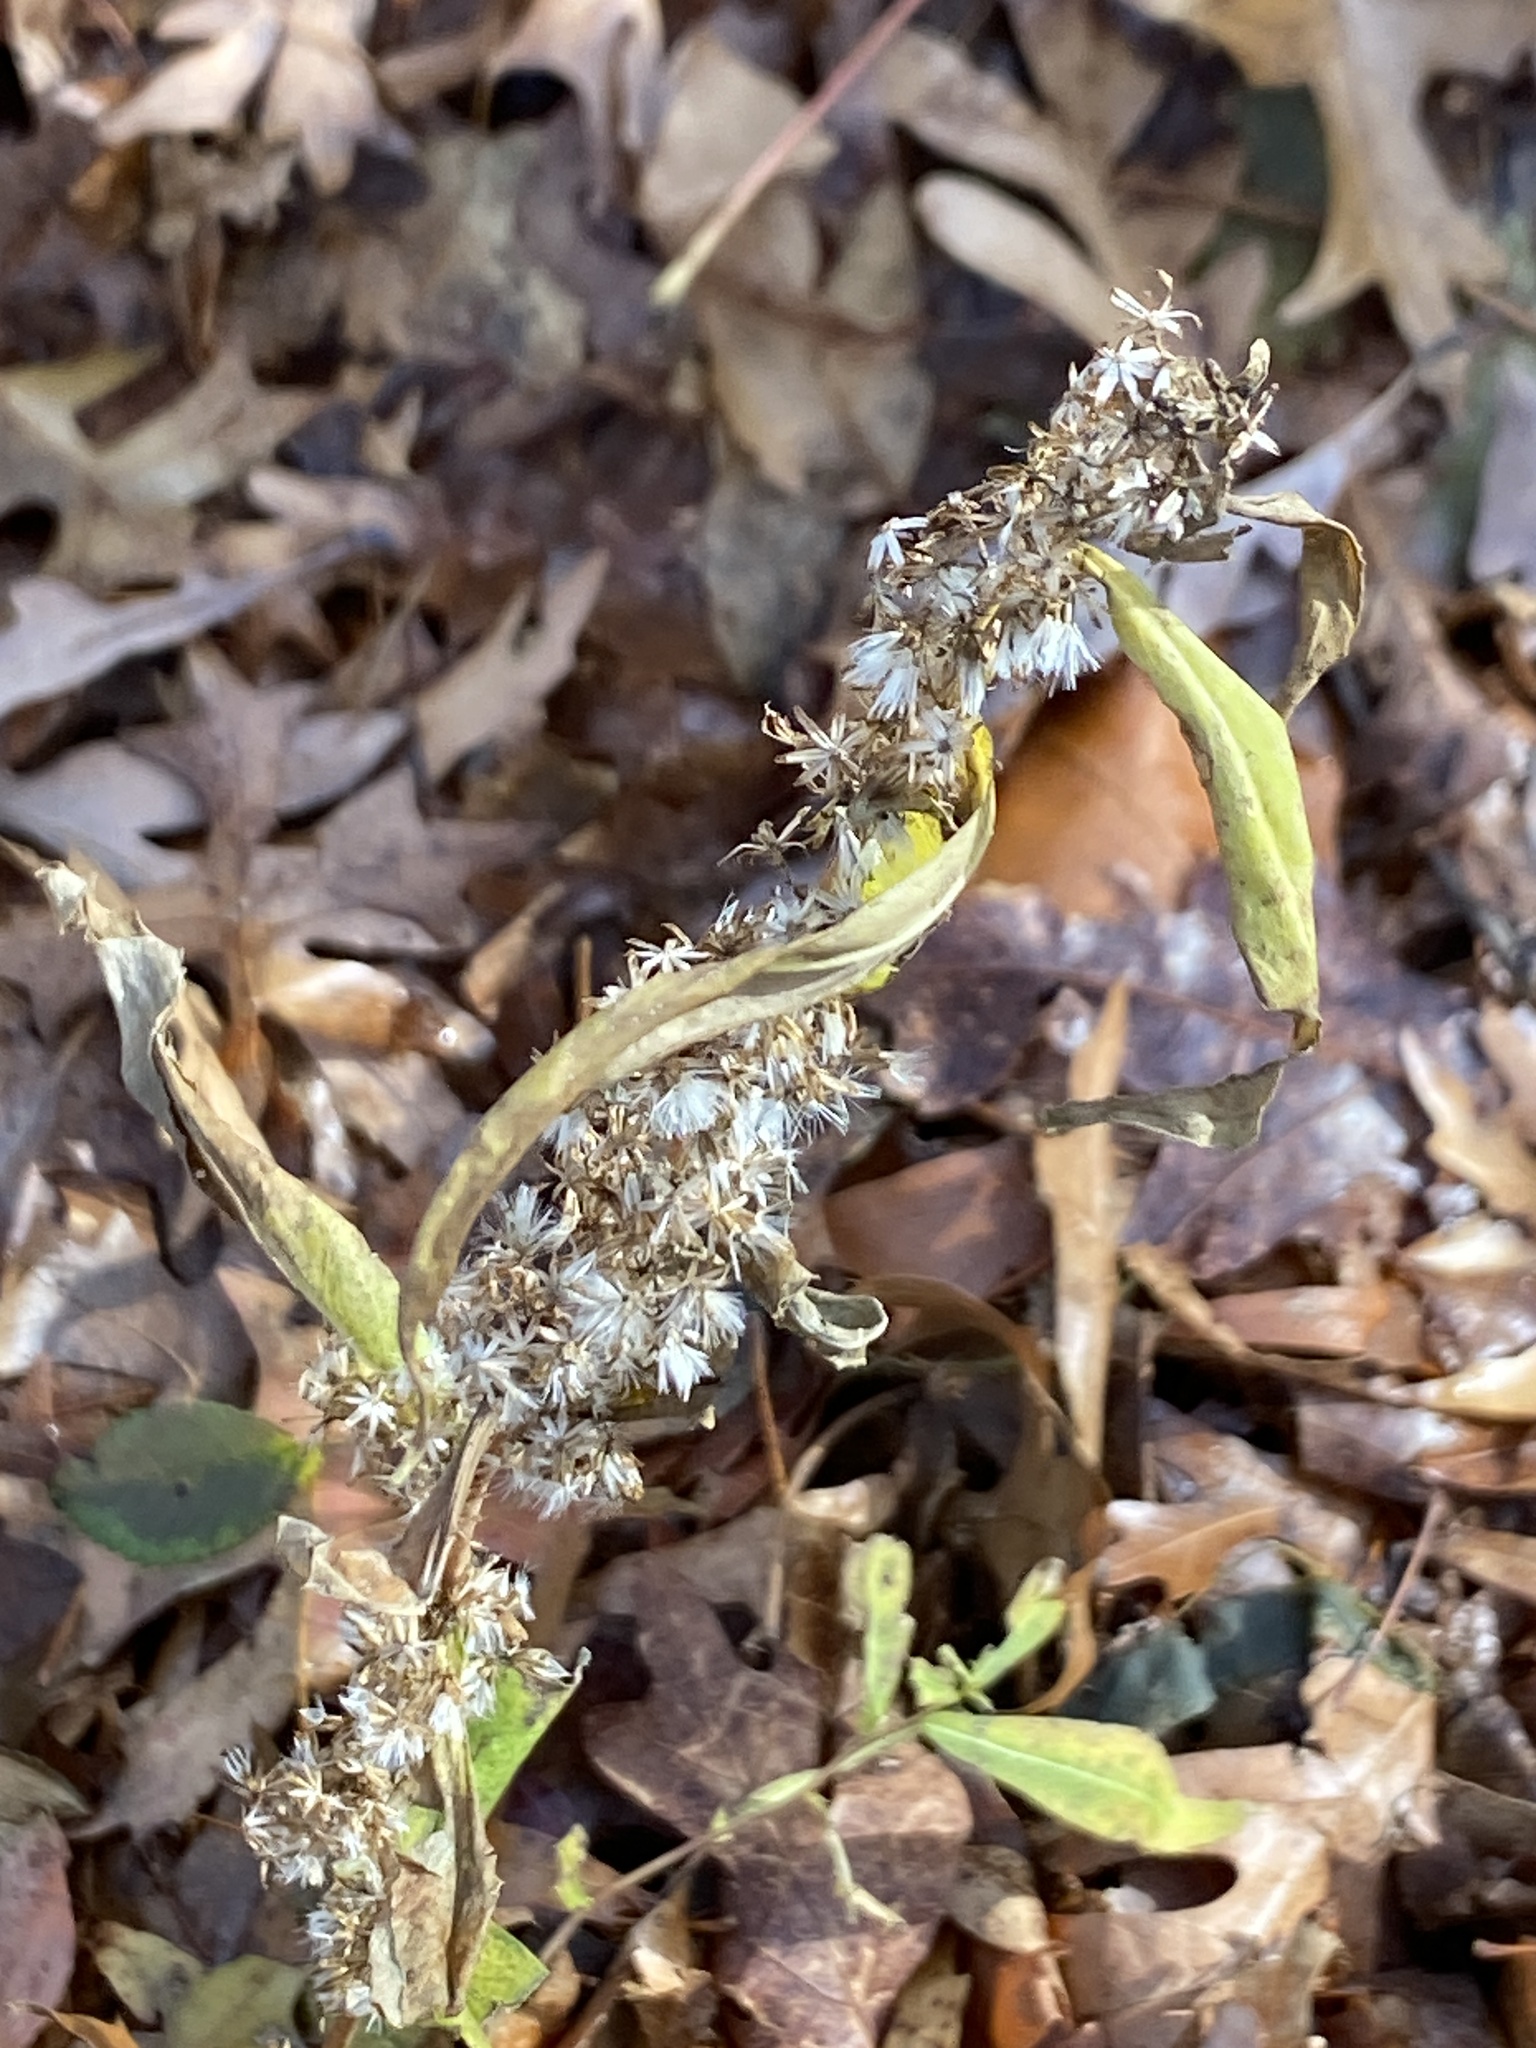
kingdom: Plantae
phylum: Tracheophyta
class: Magnoliopsida
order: Asterales
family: Asteraceae
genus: Solidago
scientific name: Solidago caesia
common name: Woodland goldenrod
